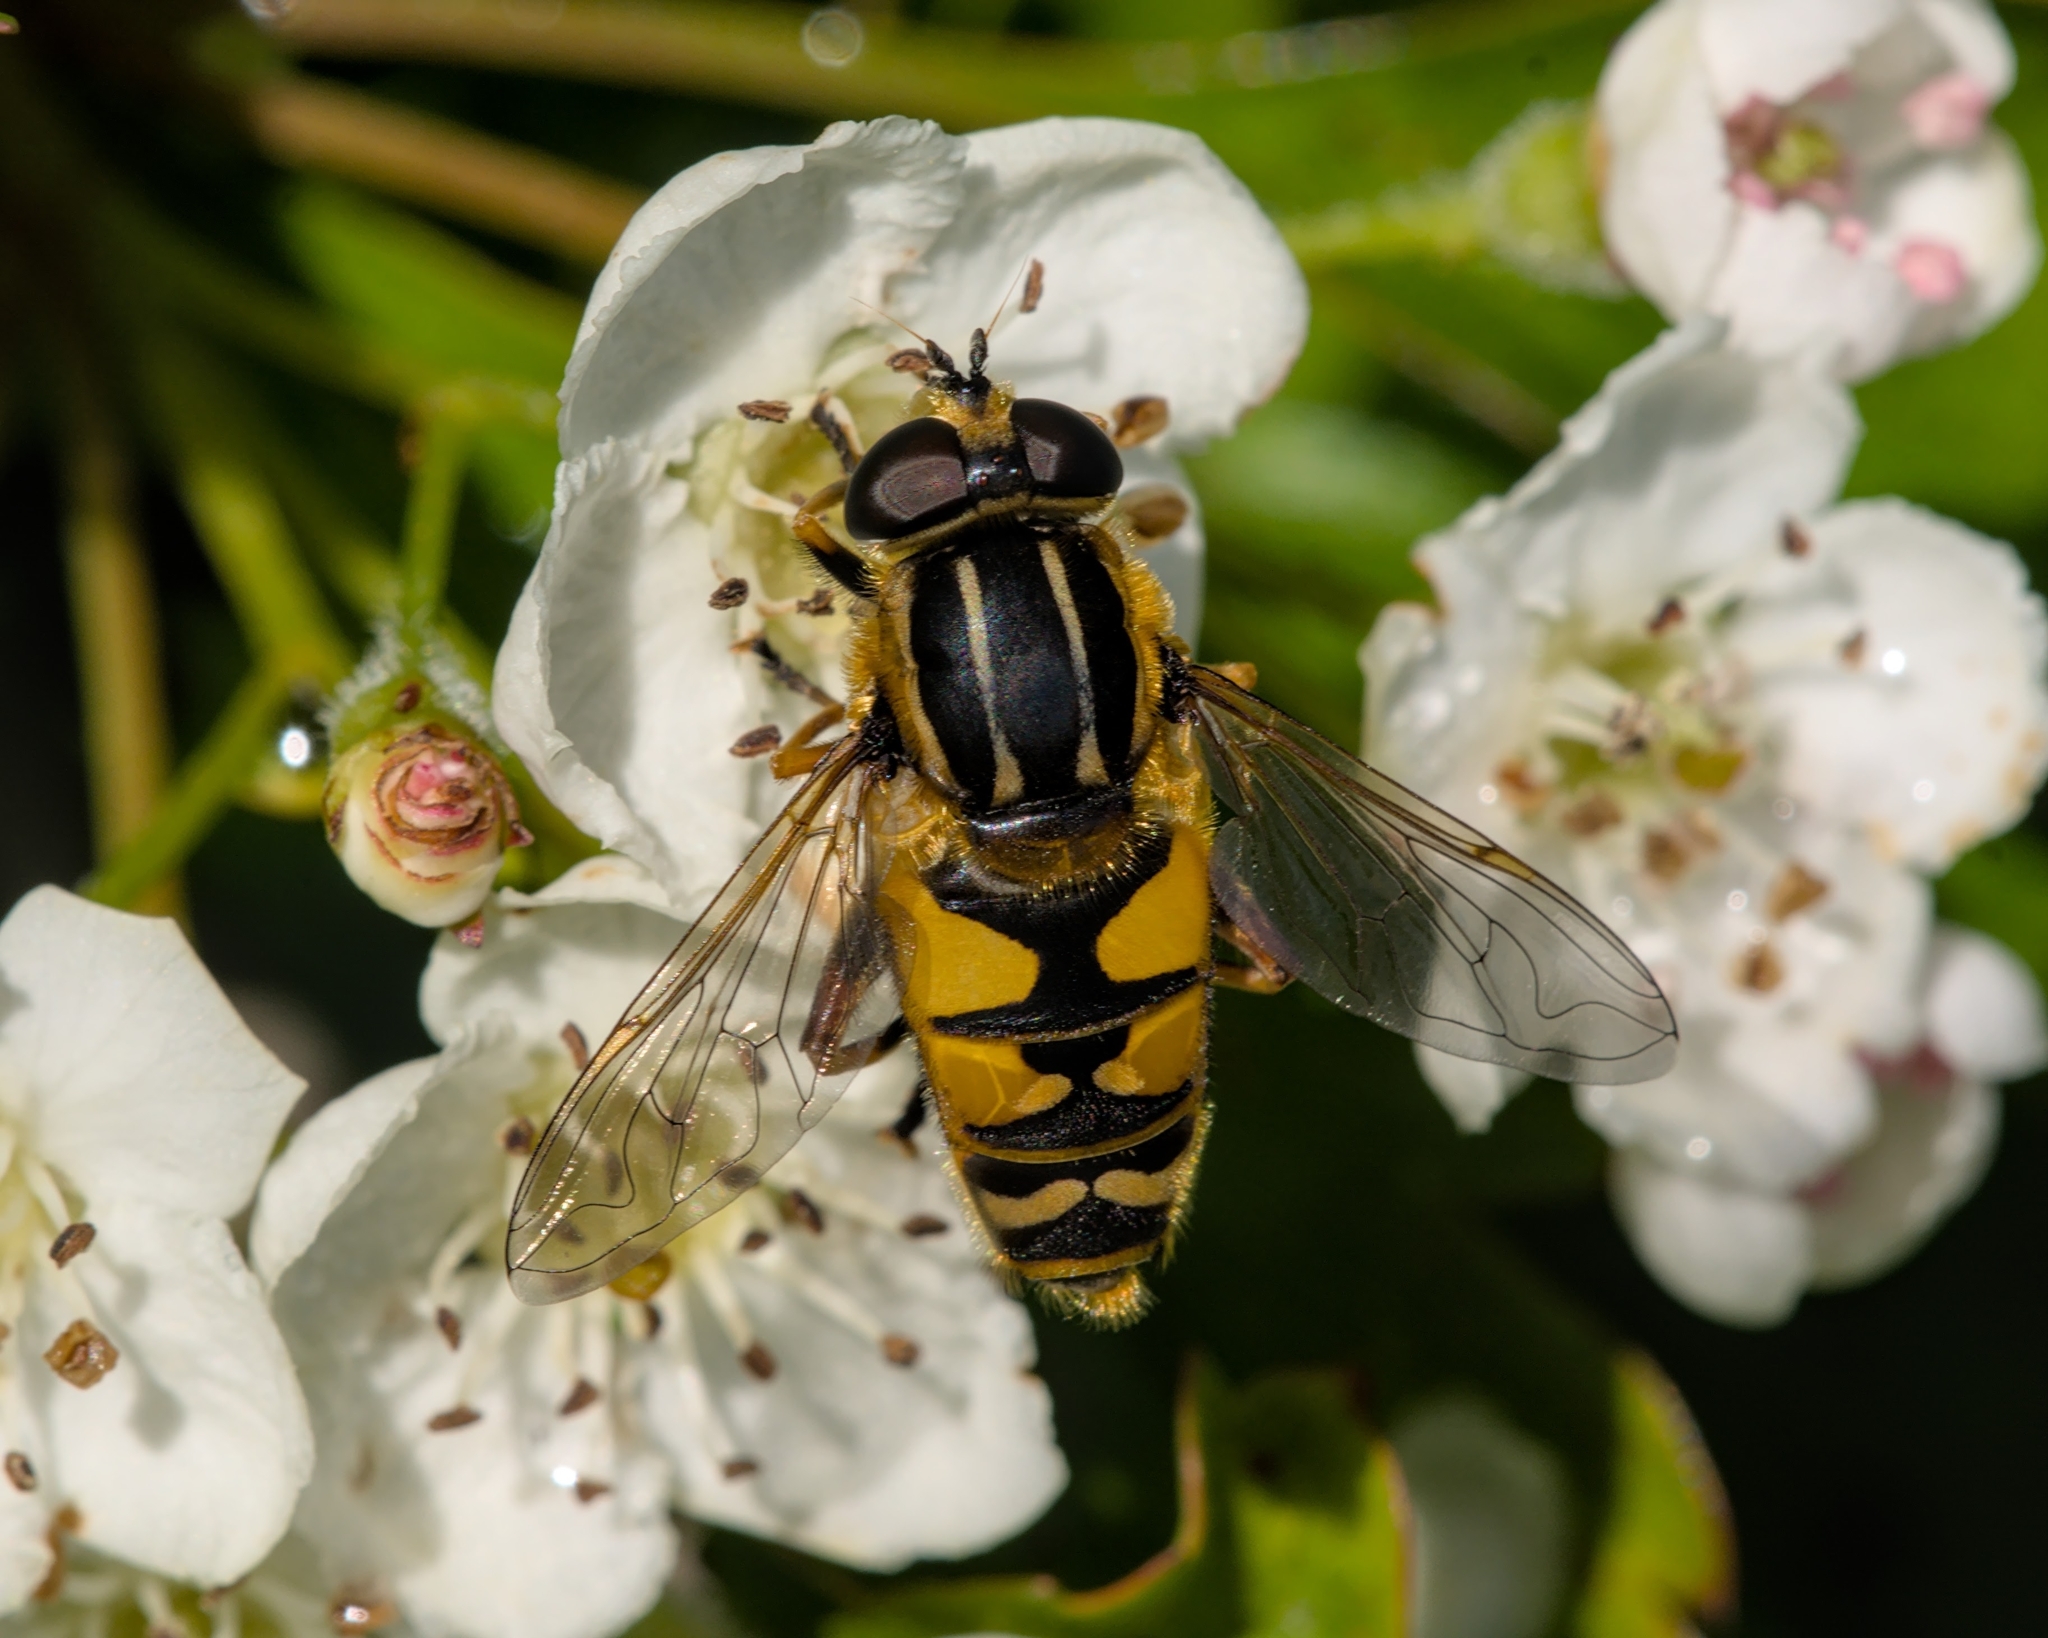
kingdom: Animalia
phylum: Arthropoda
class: Insecta
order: Diptera
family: Syrphidae
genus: Helophilus
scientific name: Helophilus pendulus
